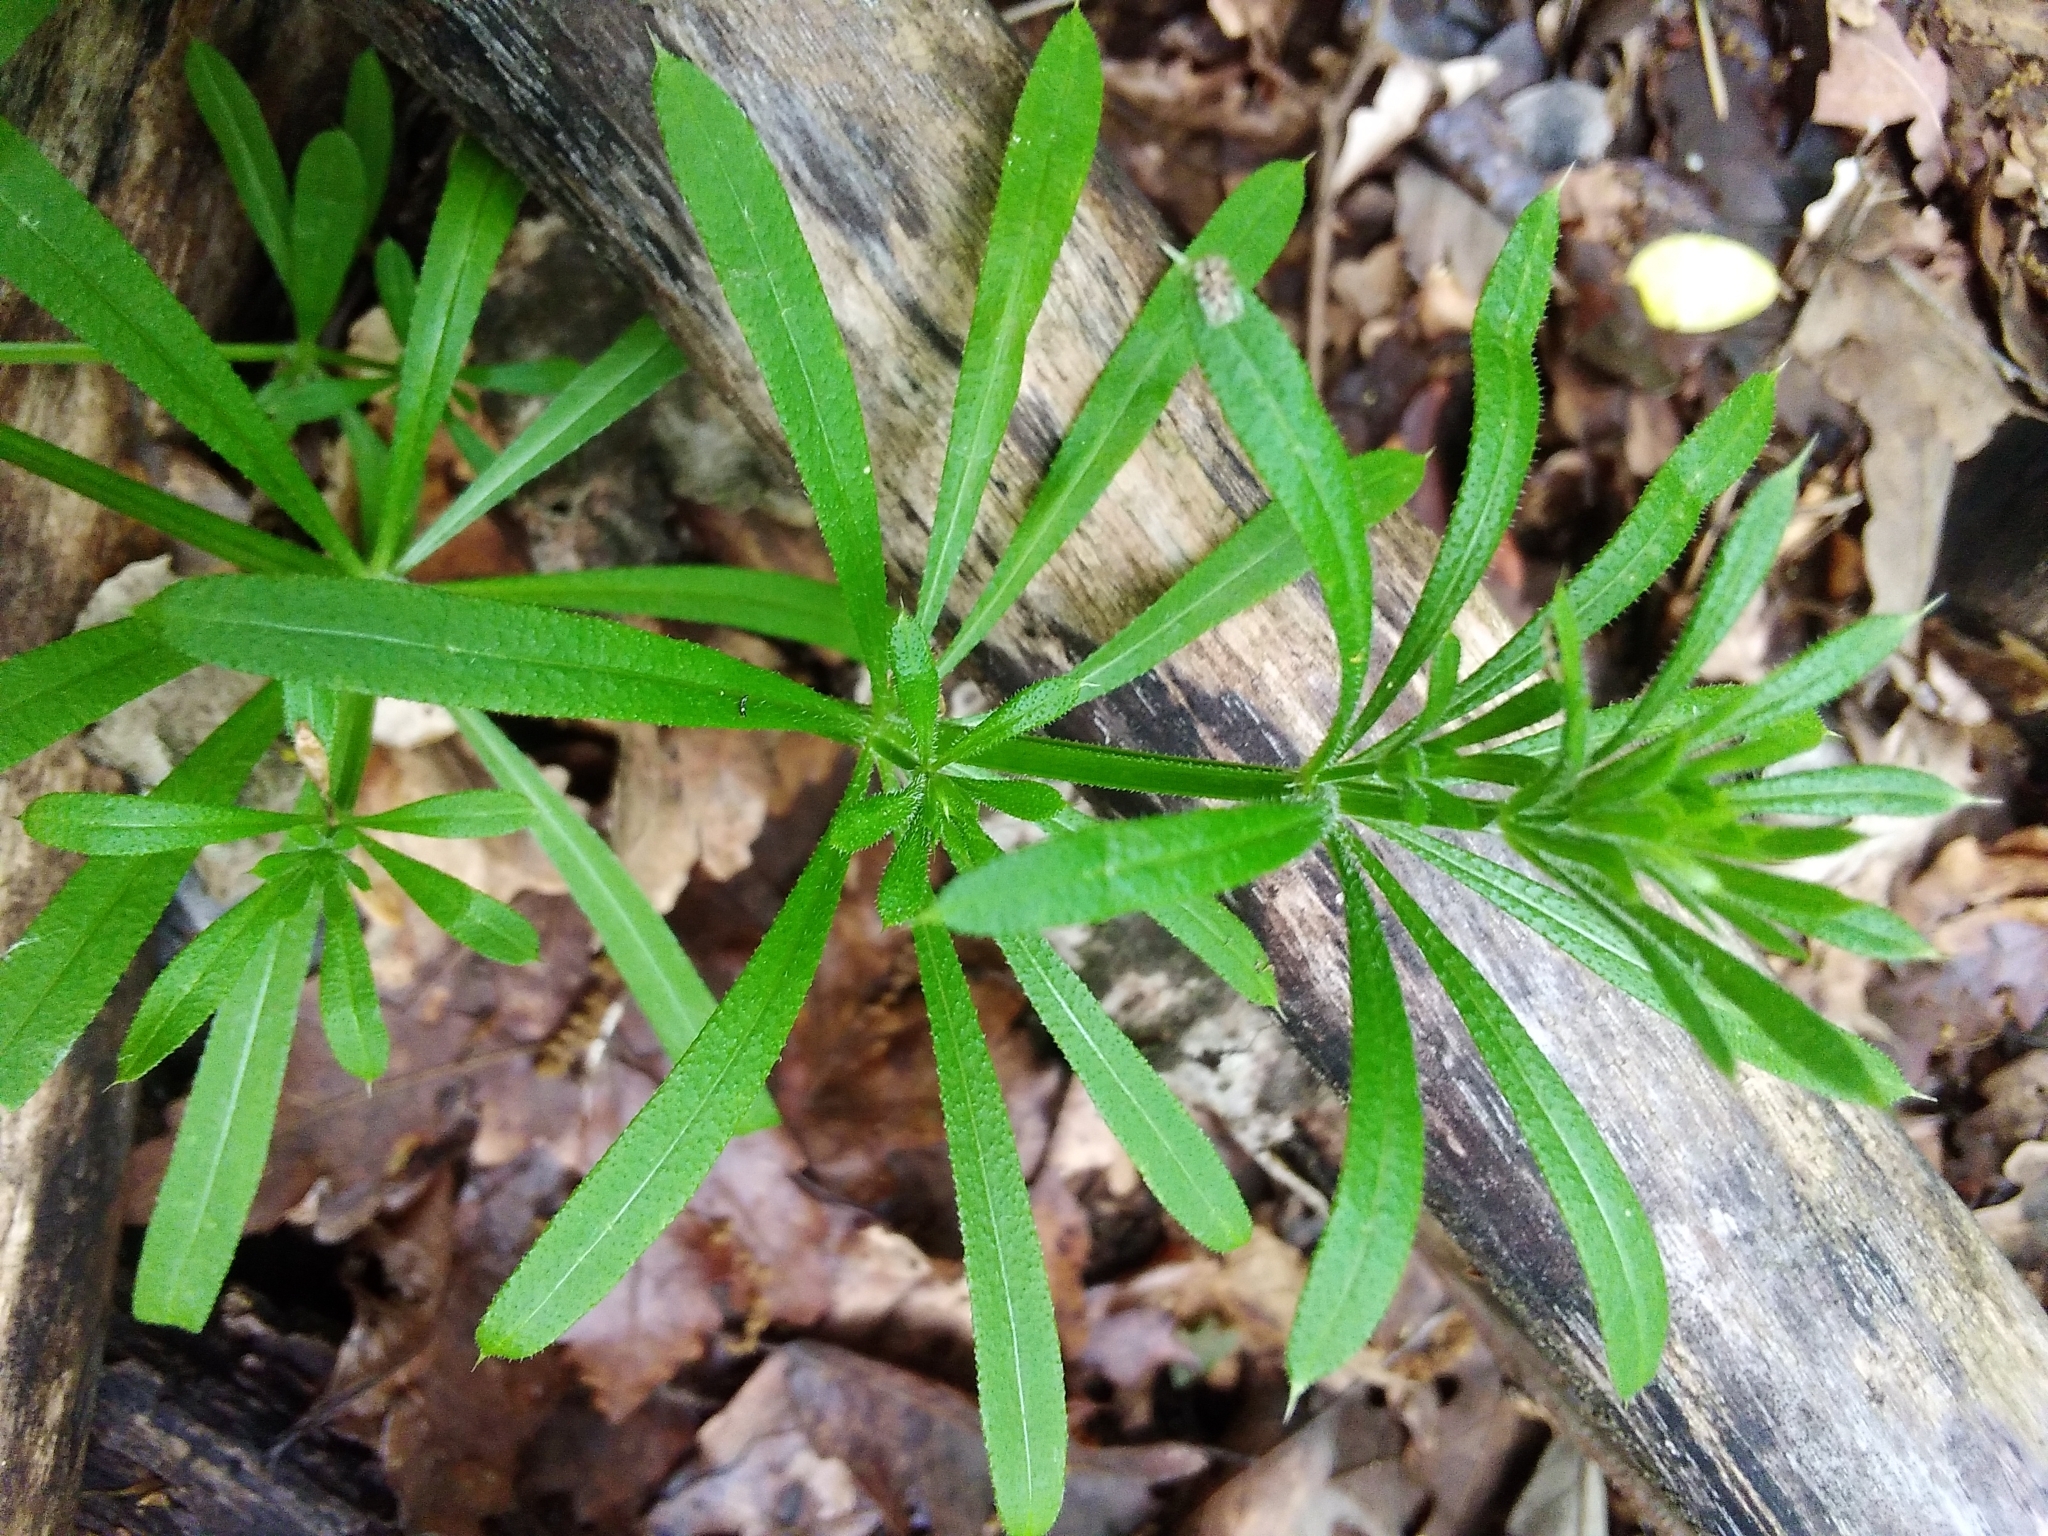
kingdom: Plantae
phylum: Tracheophyta
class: Magnoliopsida
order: Gentianales
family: Rubiaceae
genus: Galium
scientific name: Galium aparine
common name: Cleavers
